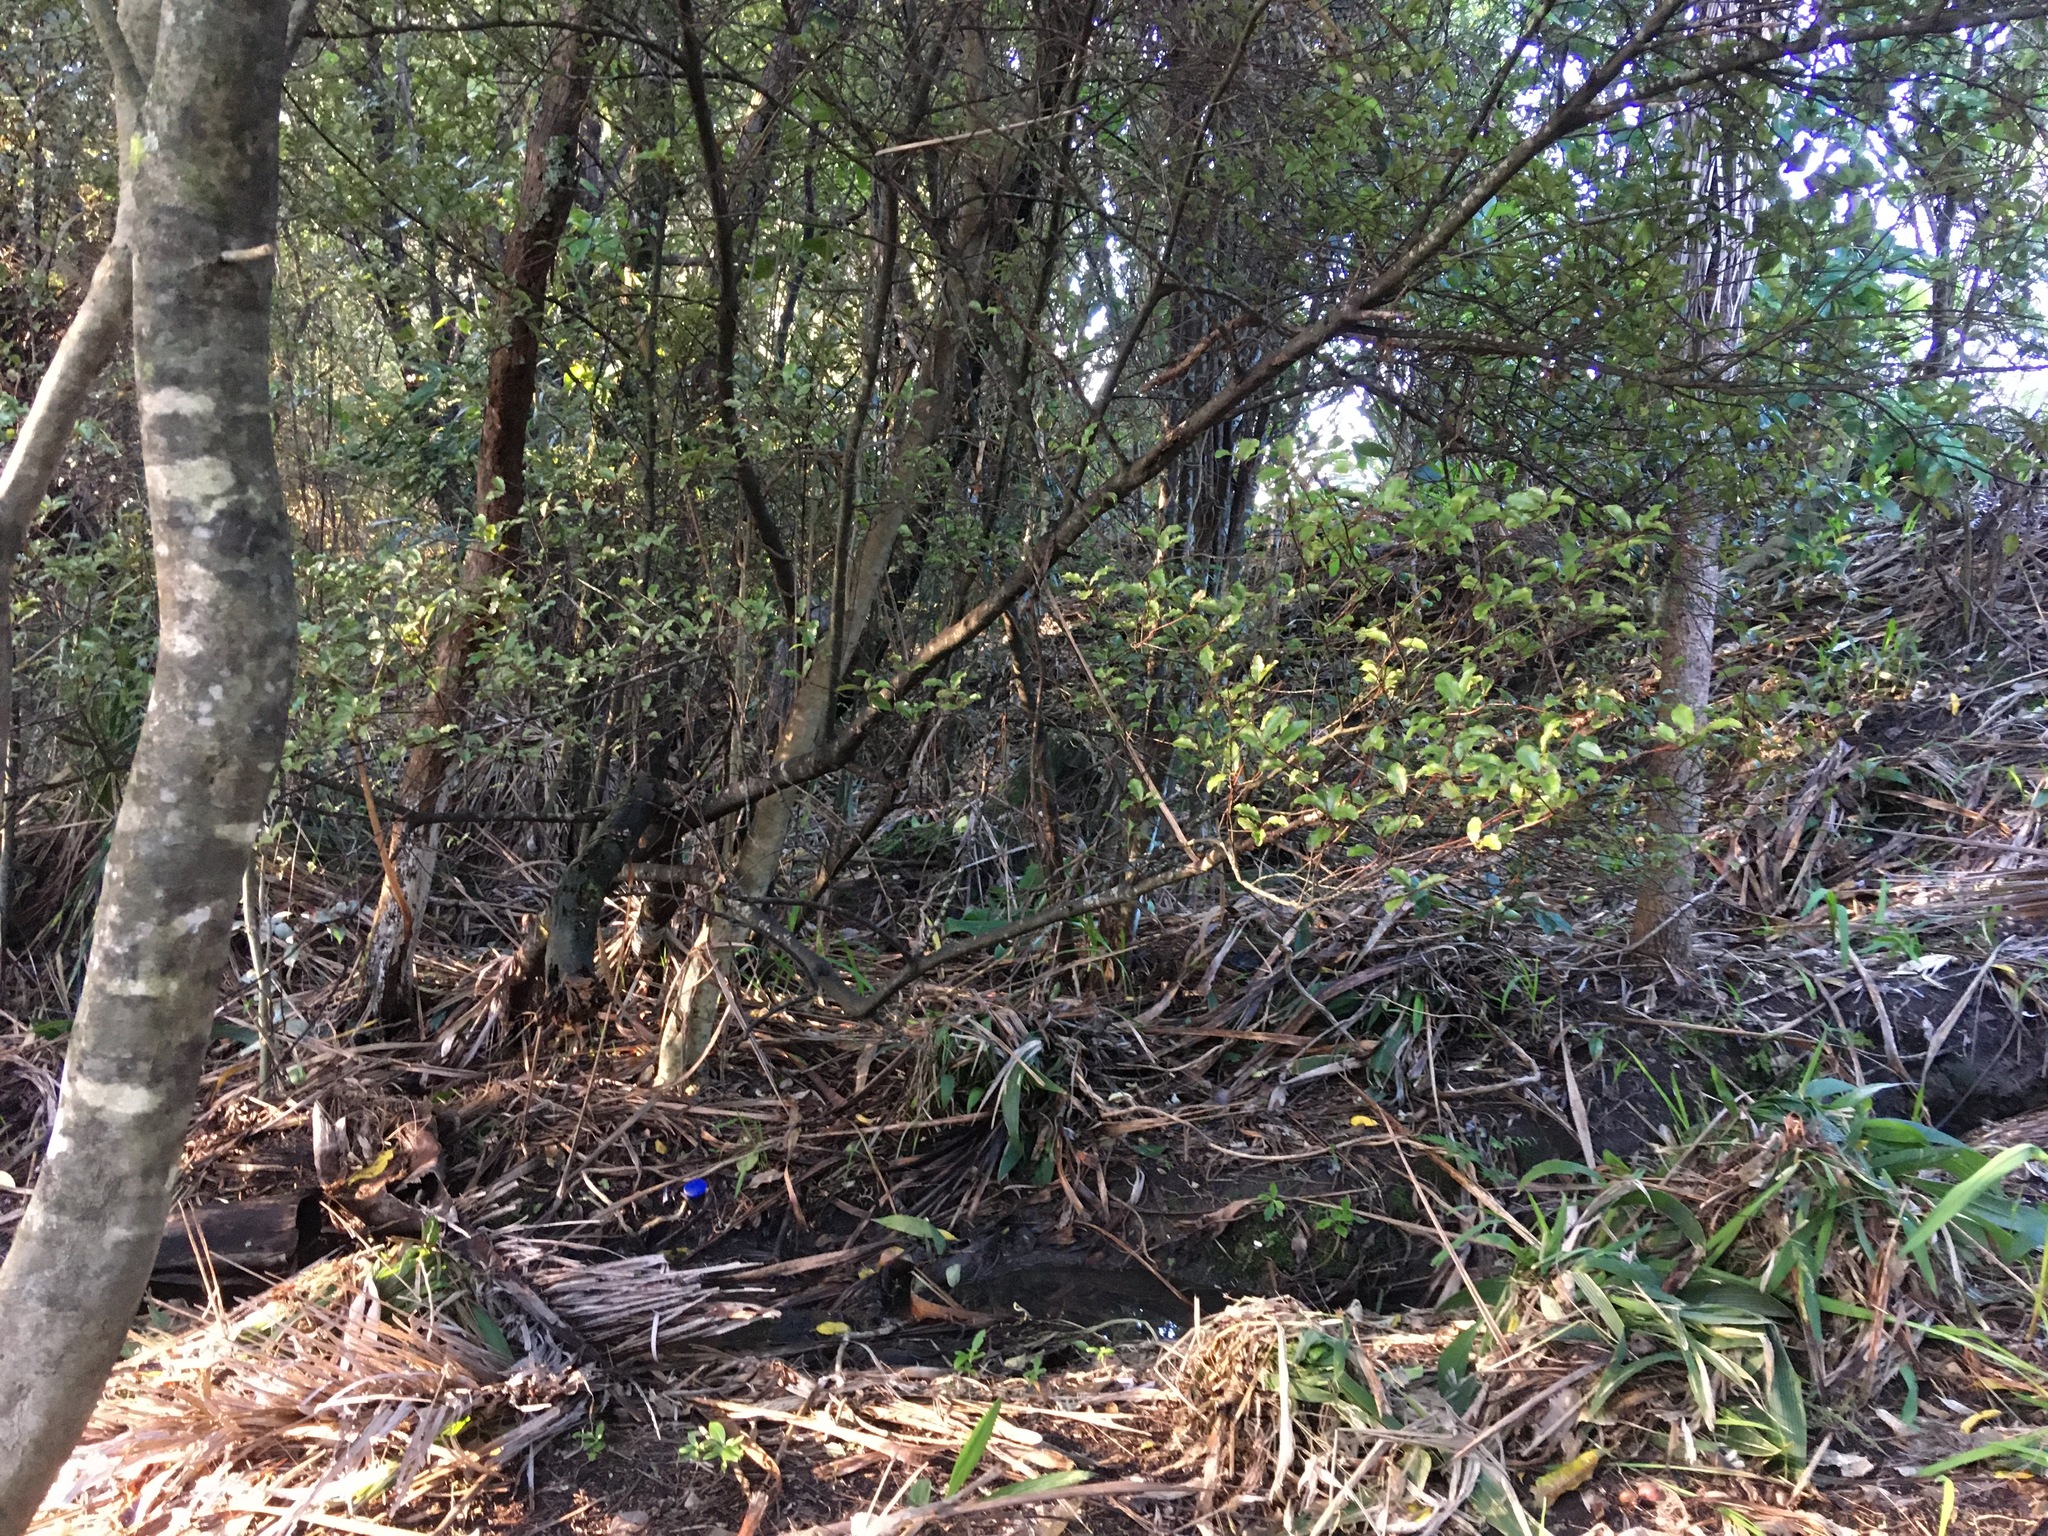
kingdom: Plantae
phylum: Tracheophyta
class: Liliopsida
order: Poales
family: Poaceae
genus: Setaria
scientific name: Setaria palmifolia
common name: Broadleaved bristlegrass
